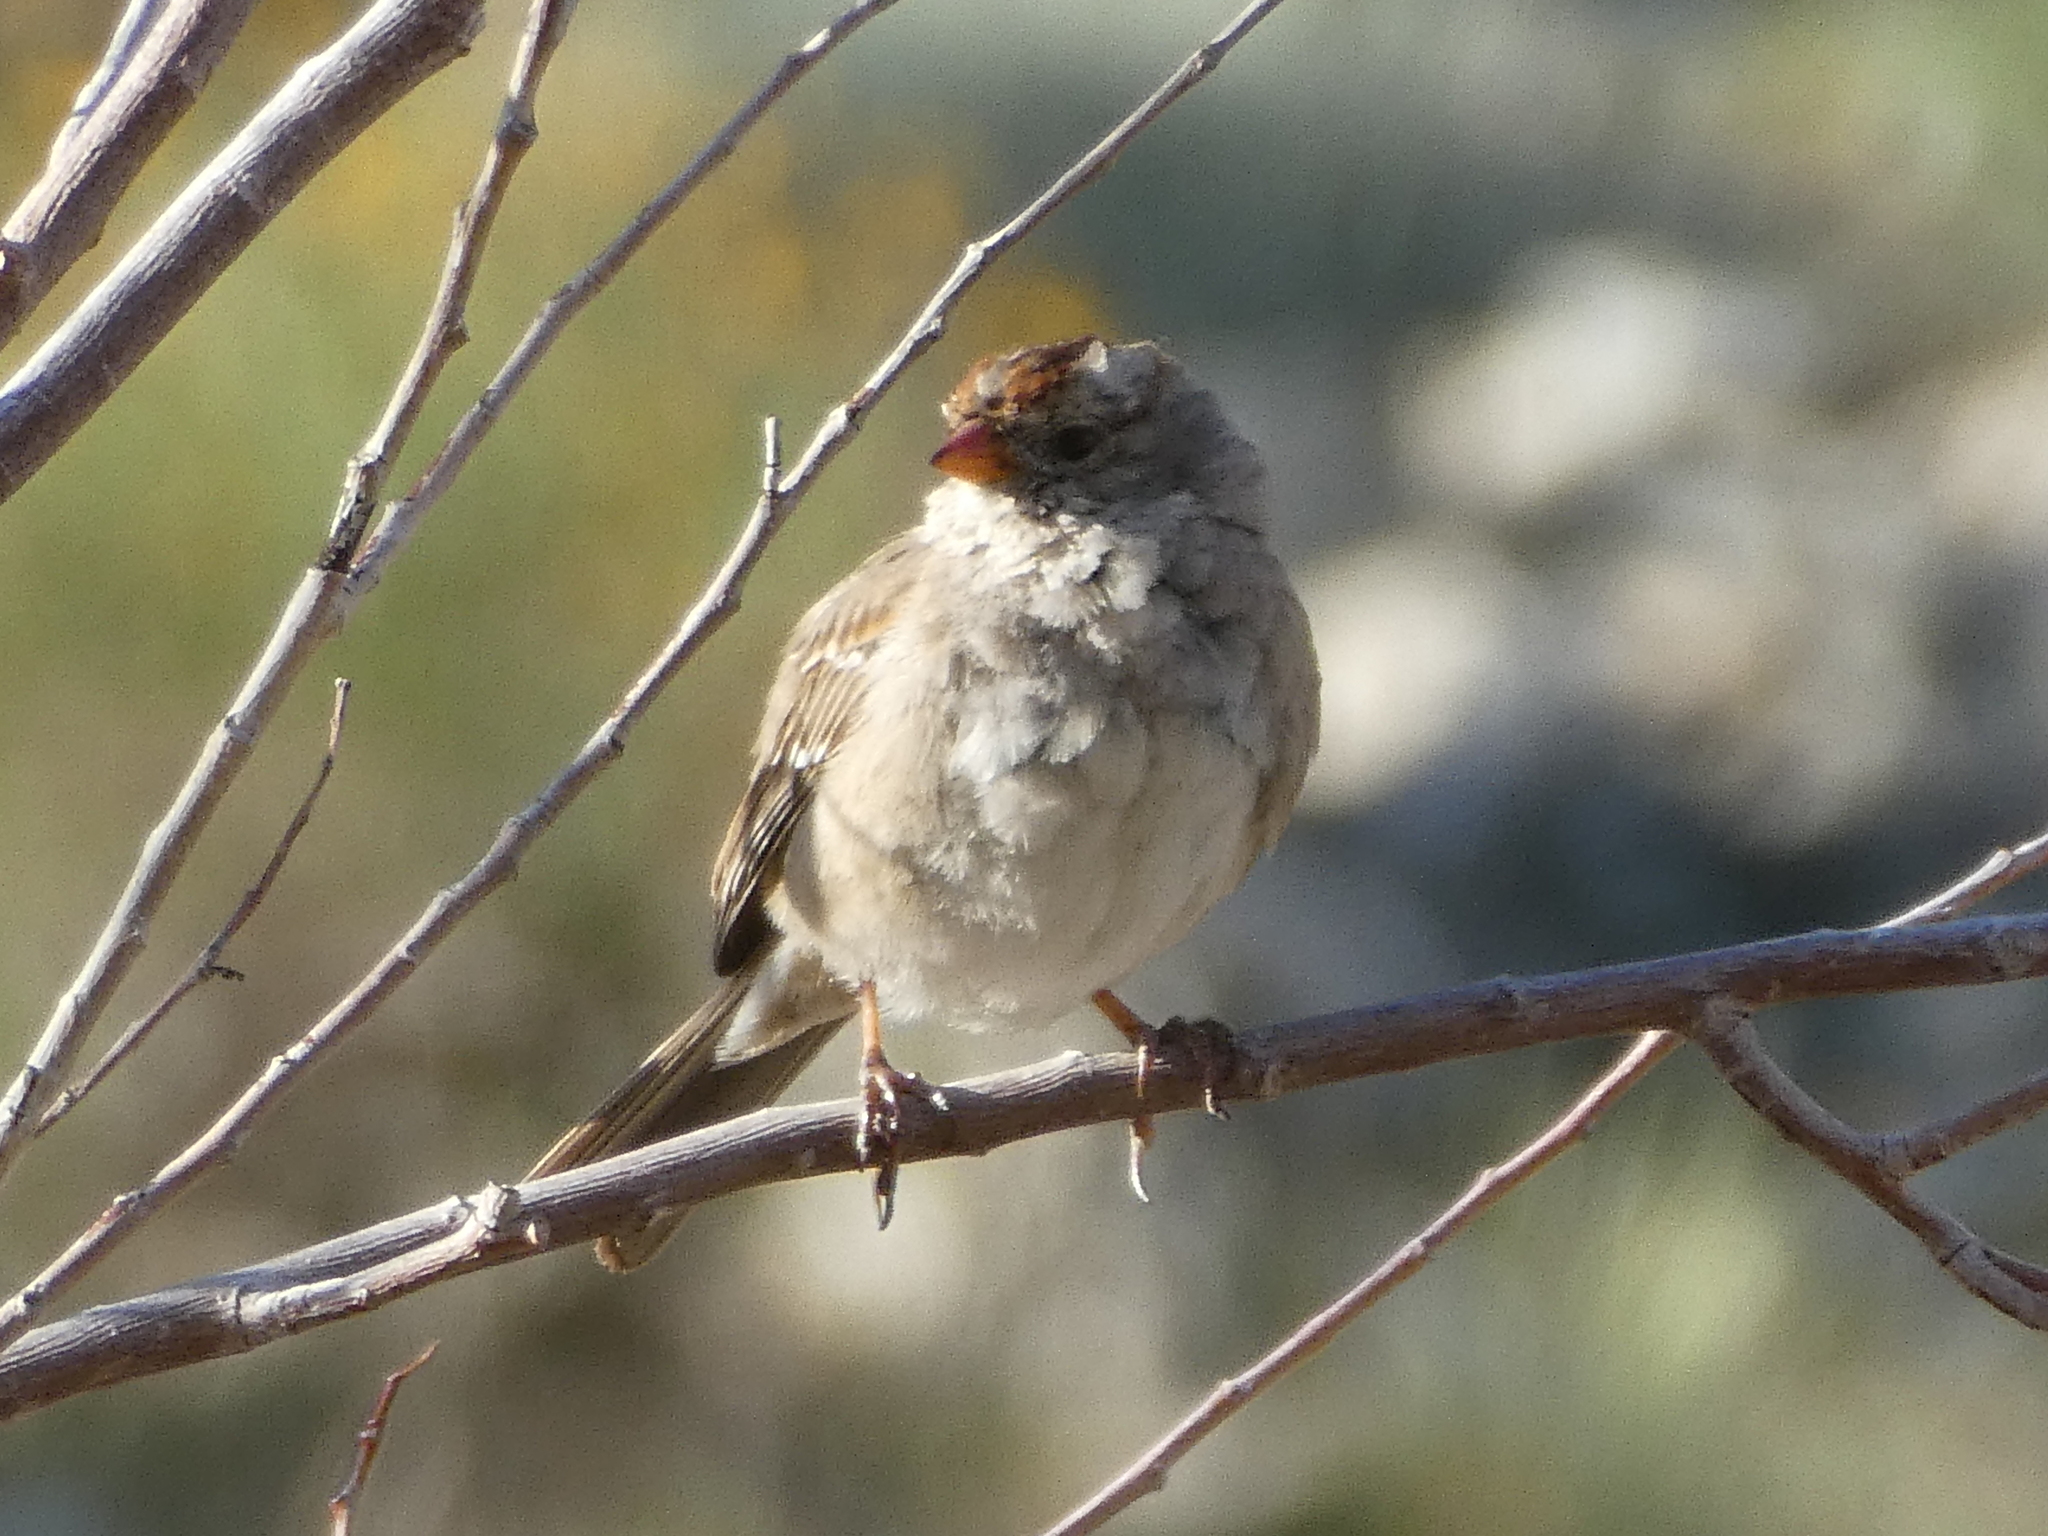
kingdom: Animalia
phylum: Chordata
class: Aves
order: Passeriformes
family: Passerellidae
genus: Zonotrichia
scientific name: Zonotrichia leucophrys
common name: White-crowned sparrow
